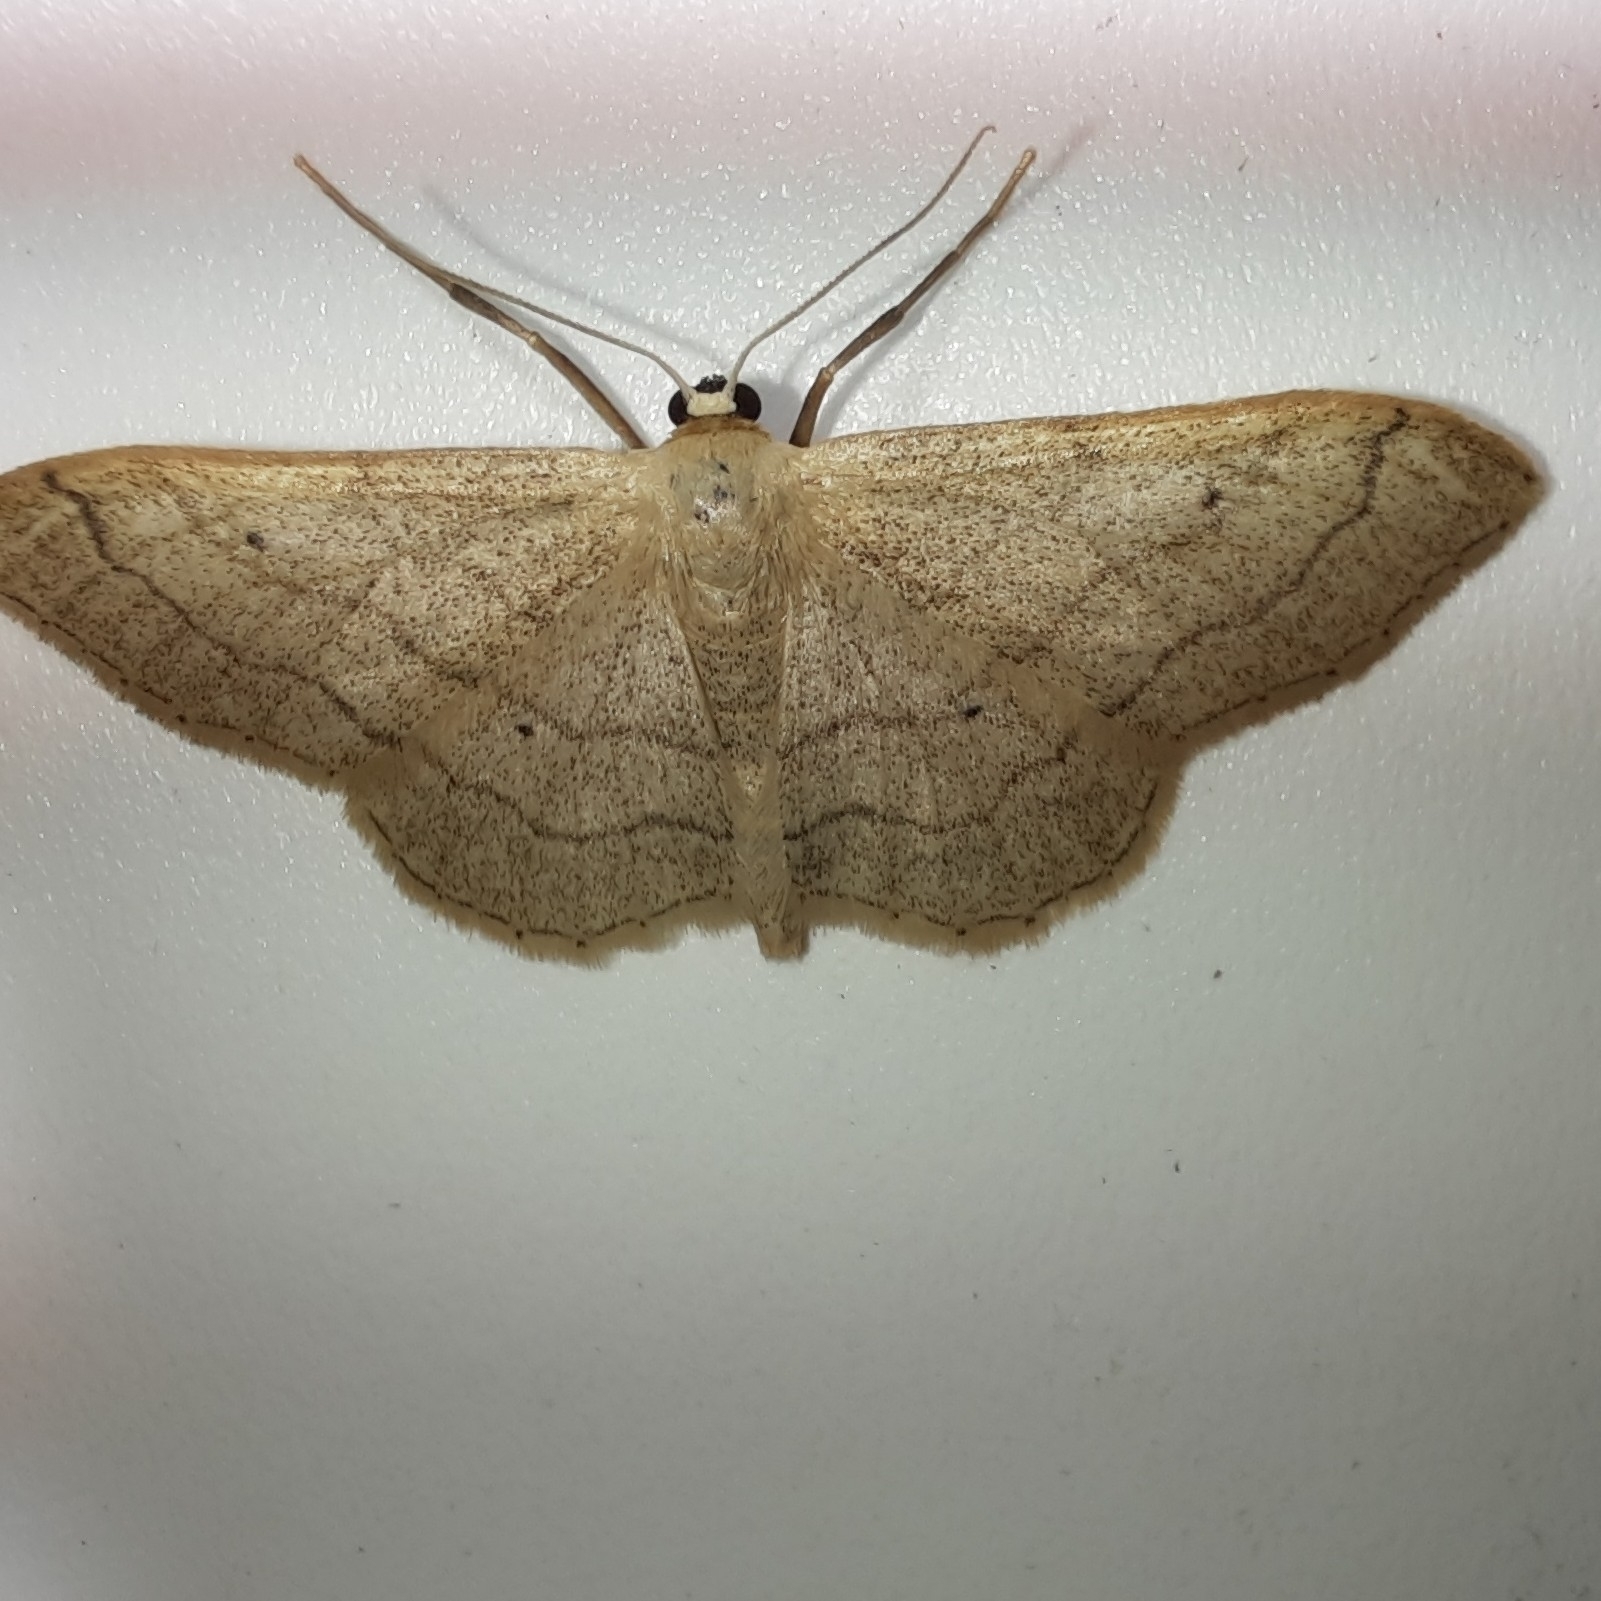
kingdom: Animalia
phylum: Arthropoda
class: Insecta
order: Lepidoptera
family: Geometridae
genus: Idaea
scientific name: Idaea aversata
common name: Riband wave
